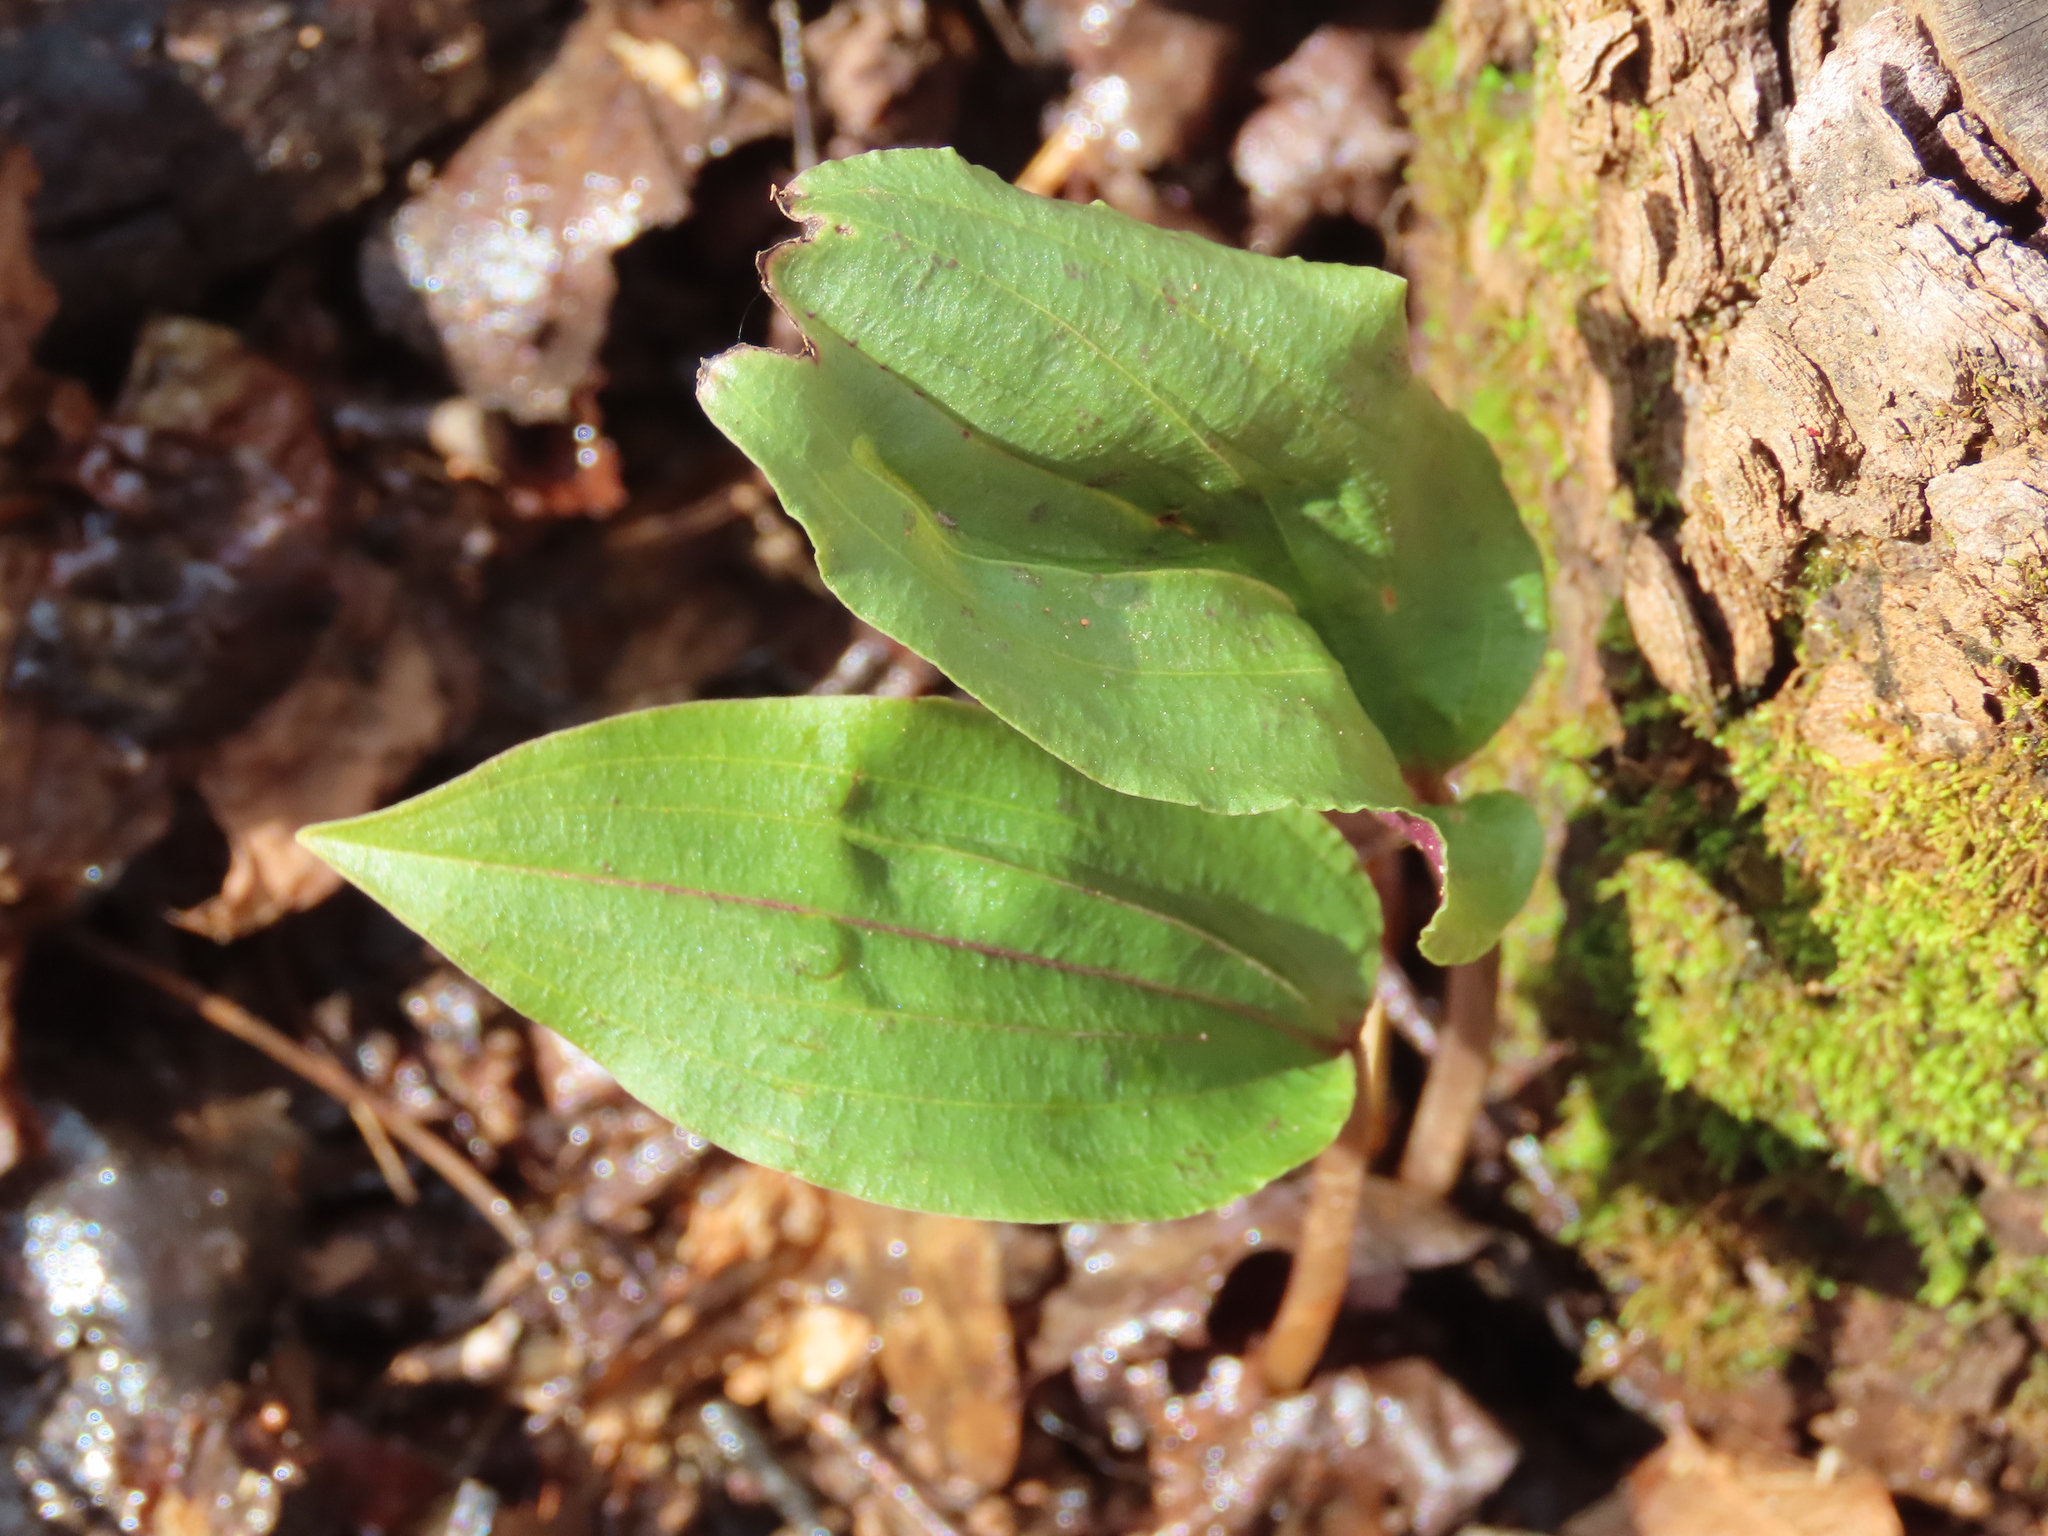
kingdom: Plantae
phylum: Tracheophyta
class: Liliopsida
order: Asparagales
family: Orchidaceae
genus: Tipularia
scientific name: Tipularia discolor
